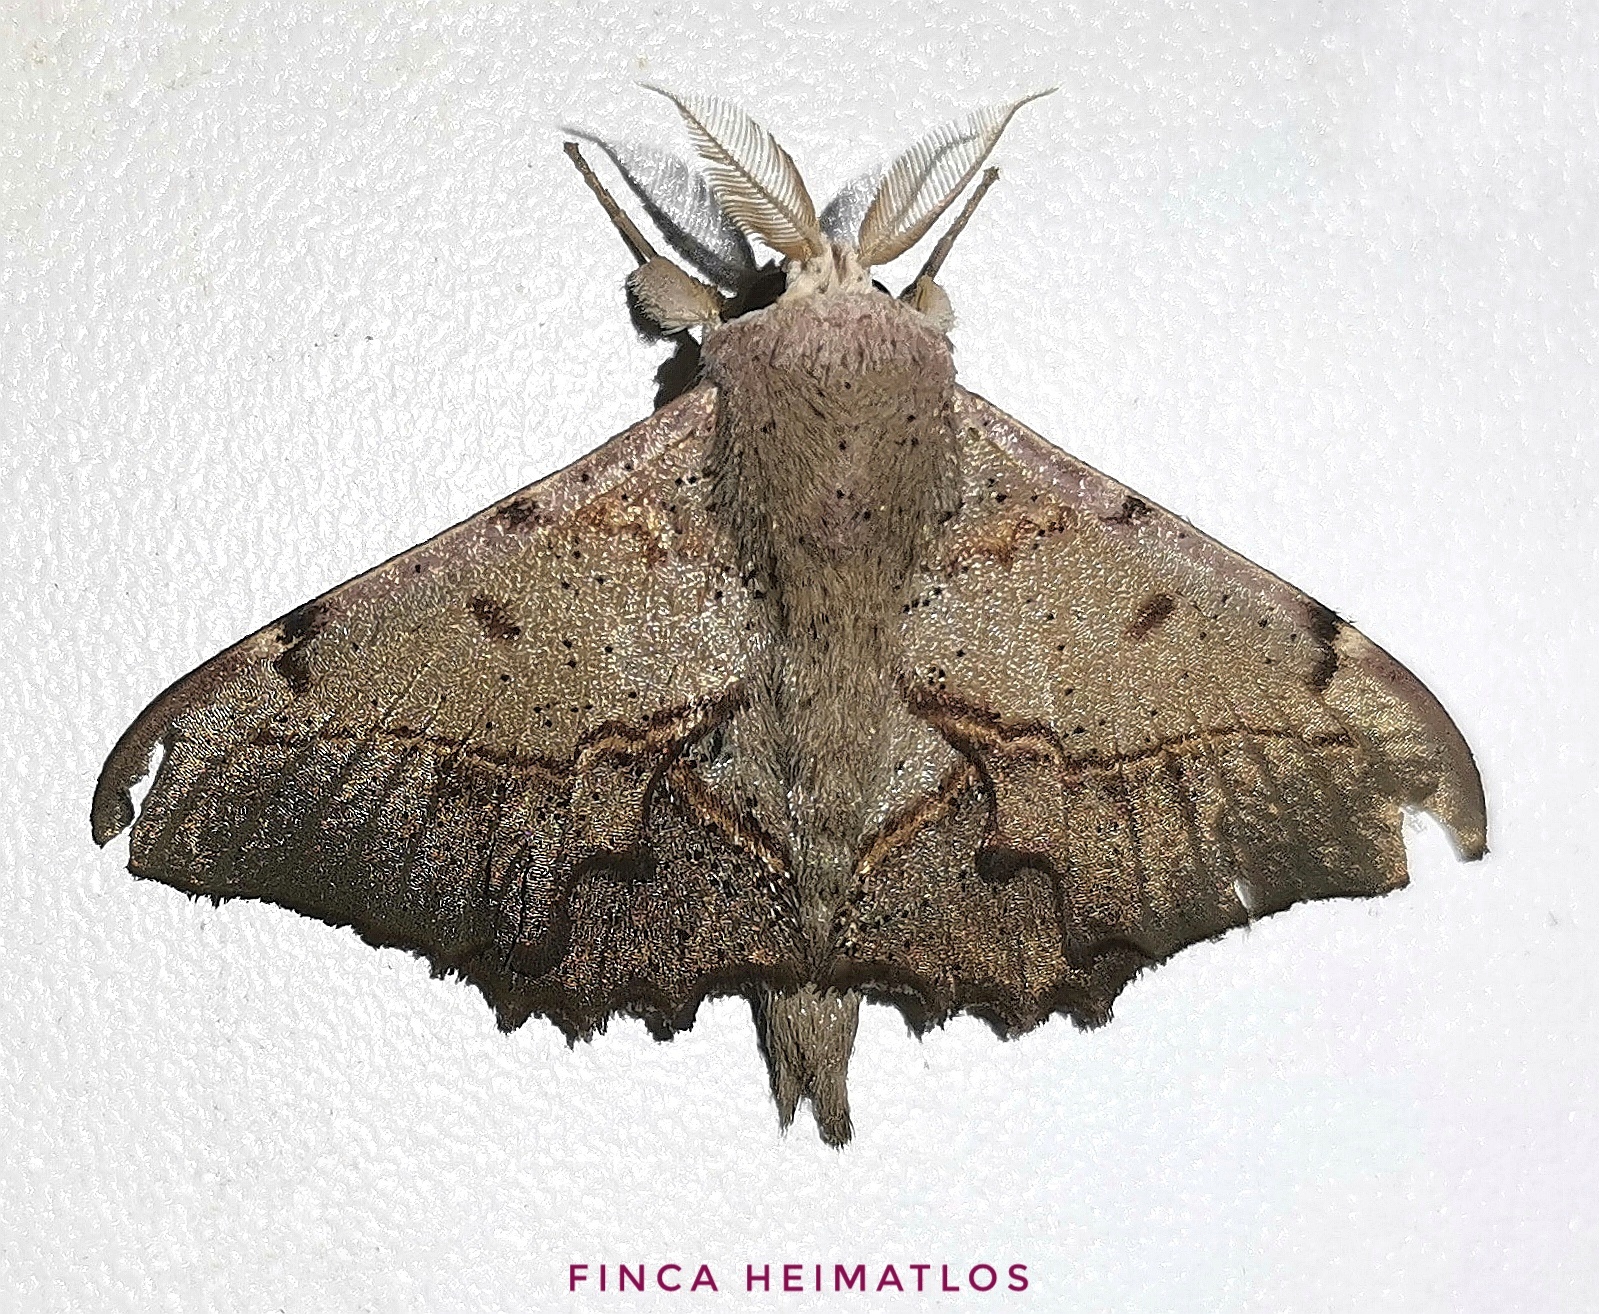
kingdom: Animalia
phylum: Arthropoda
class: Insecta
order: Lepidoptera
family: Mimallonidae
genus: Druentica
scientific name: Druentica muta
